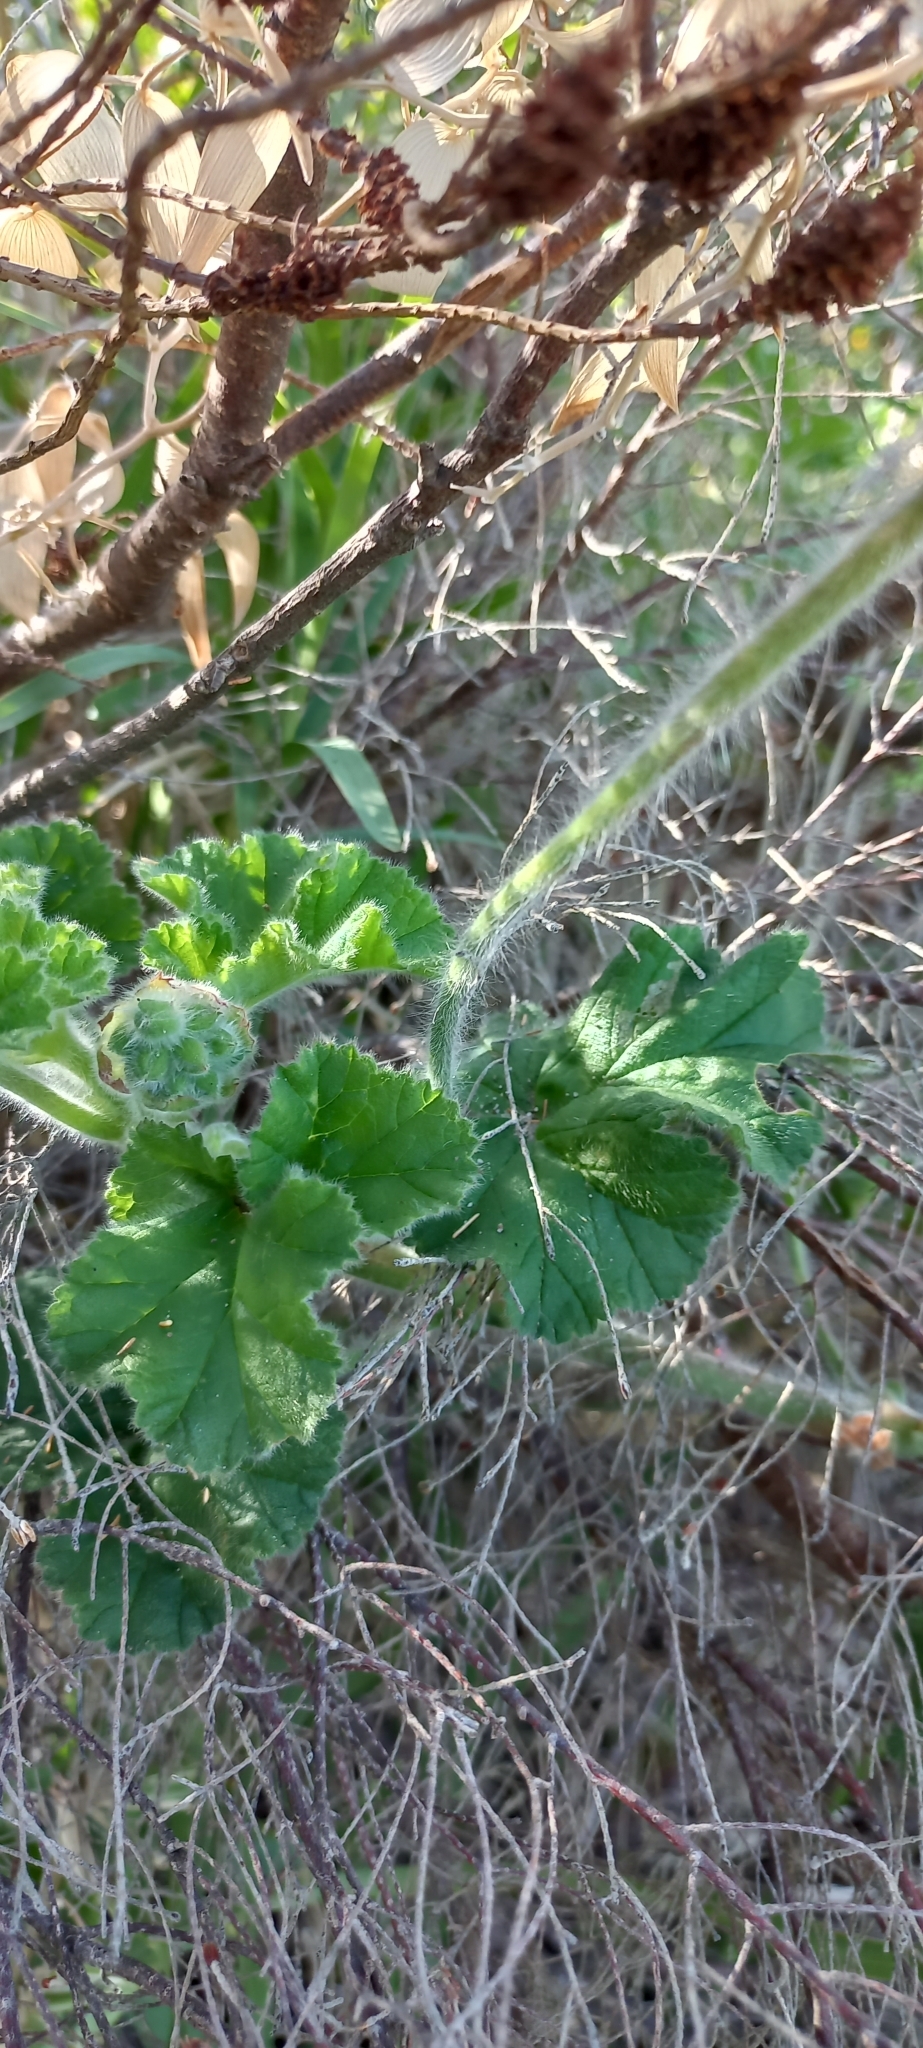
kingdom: Plantae
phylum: Tracheophyta
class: Magnoliopsida
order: Geraniales
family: Geraniaceae
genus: Pelargonium
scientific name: Pelargonium capitatum
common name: Rose scented geranium
